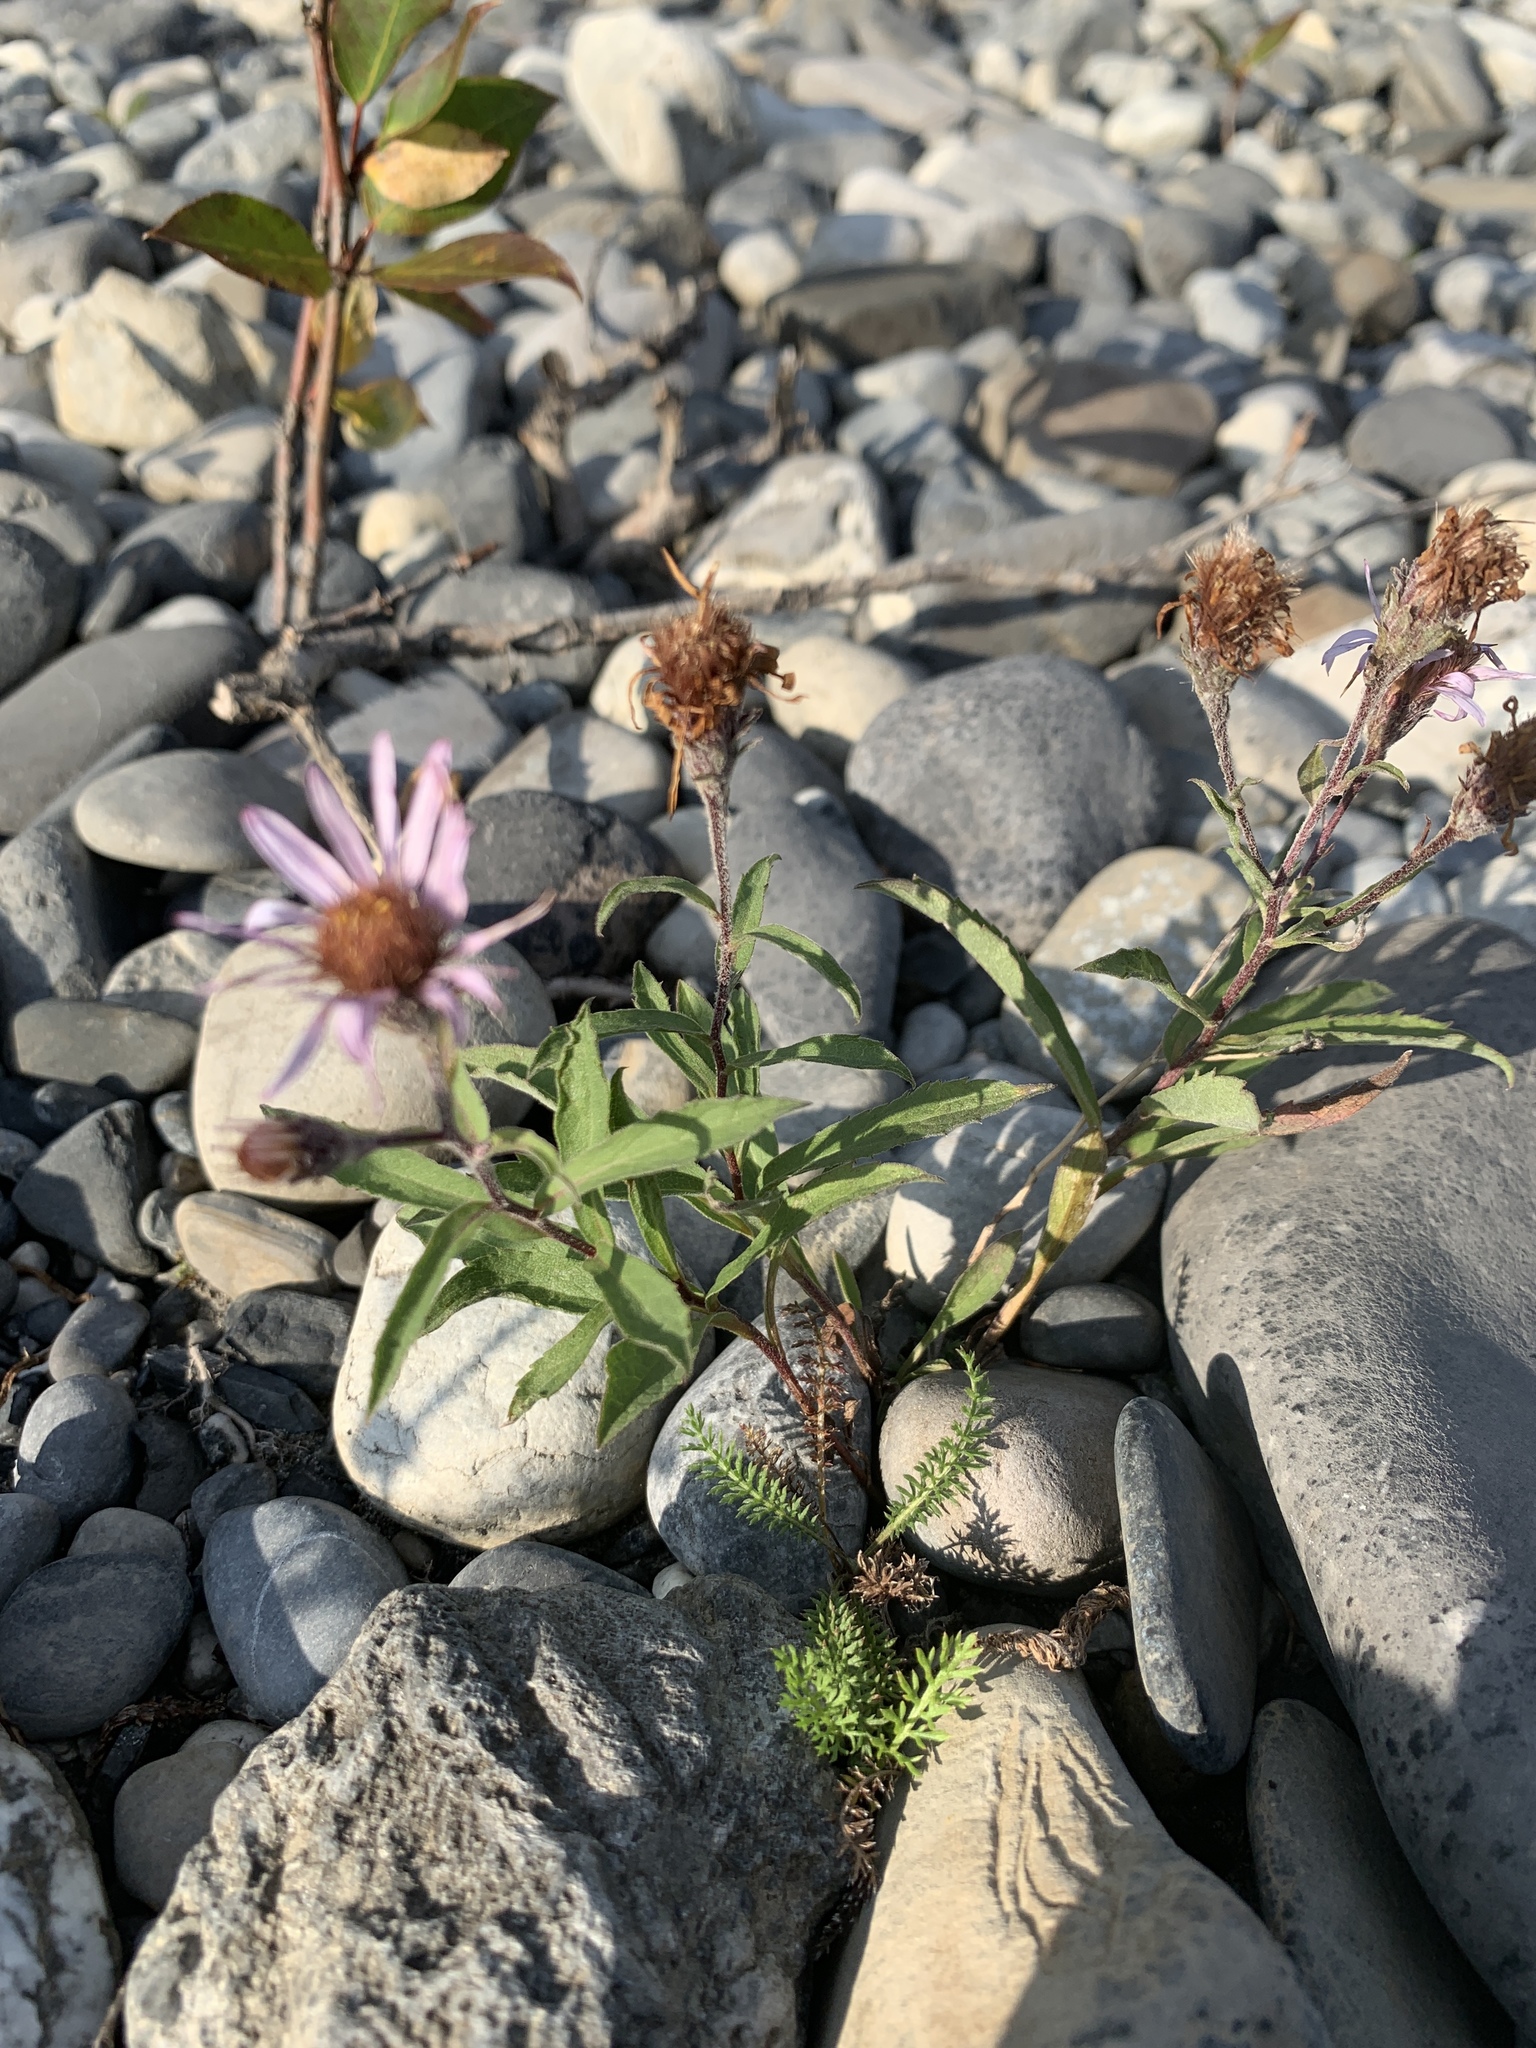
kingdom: Plantae
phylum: Tracheophyta
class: Magnoliopsida
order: Asterales
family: Asteraceae
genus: Eurybia
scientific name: Eurybia sibirica
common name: Arctic aster
